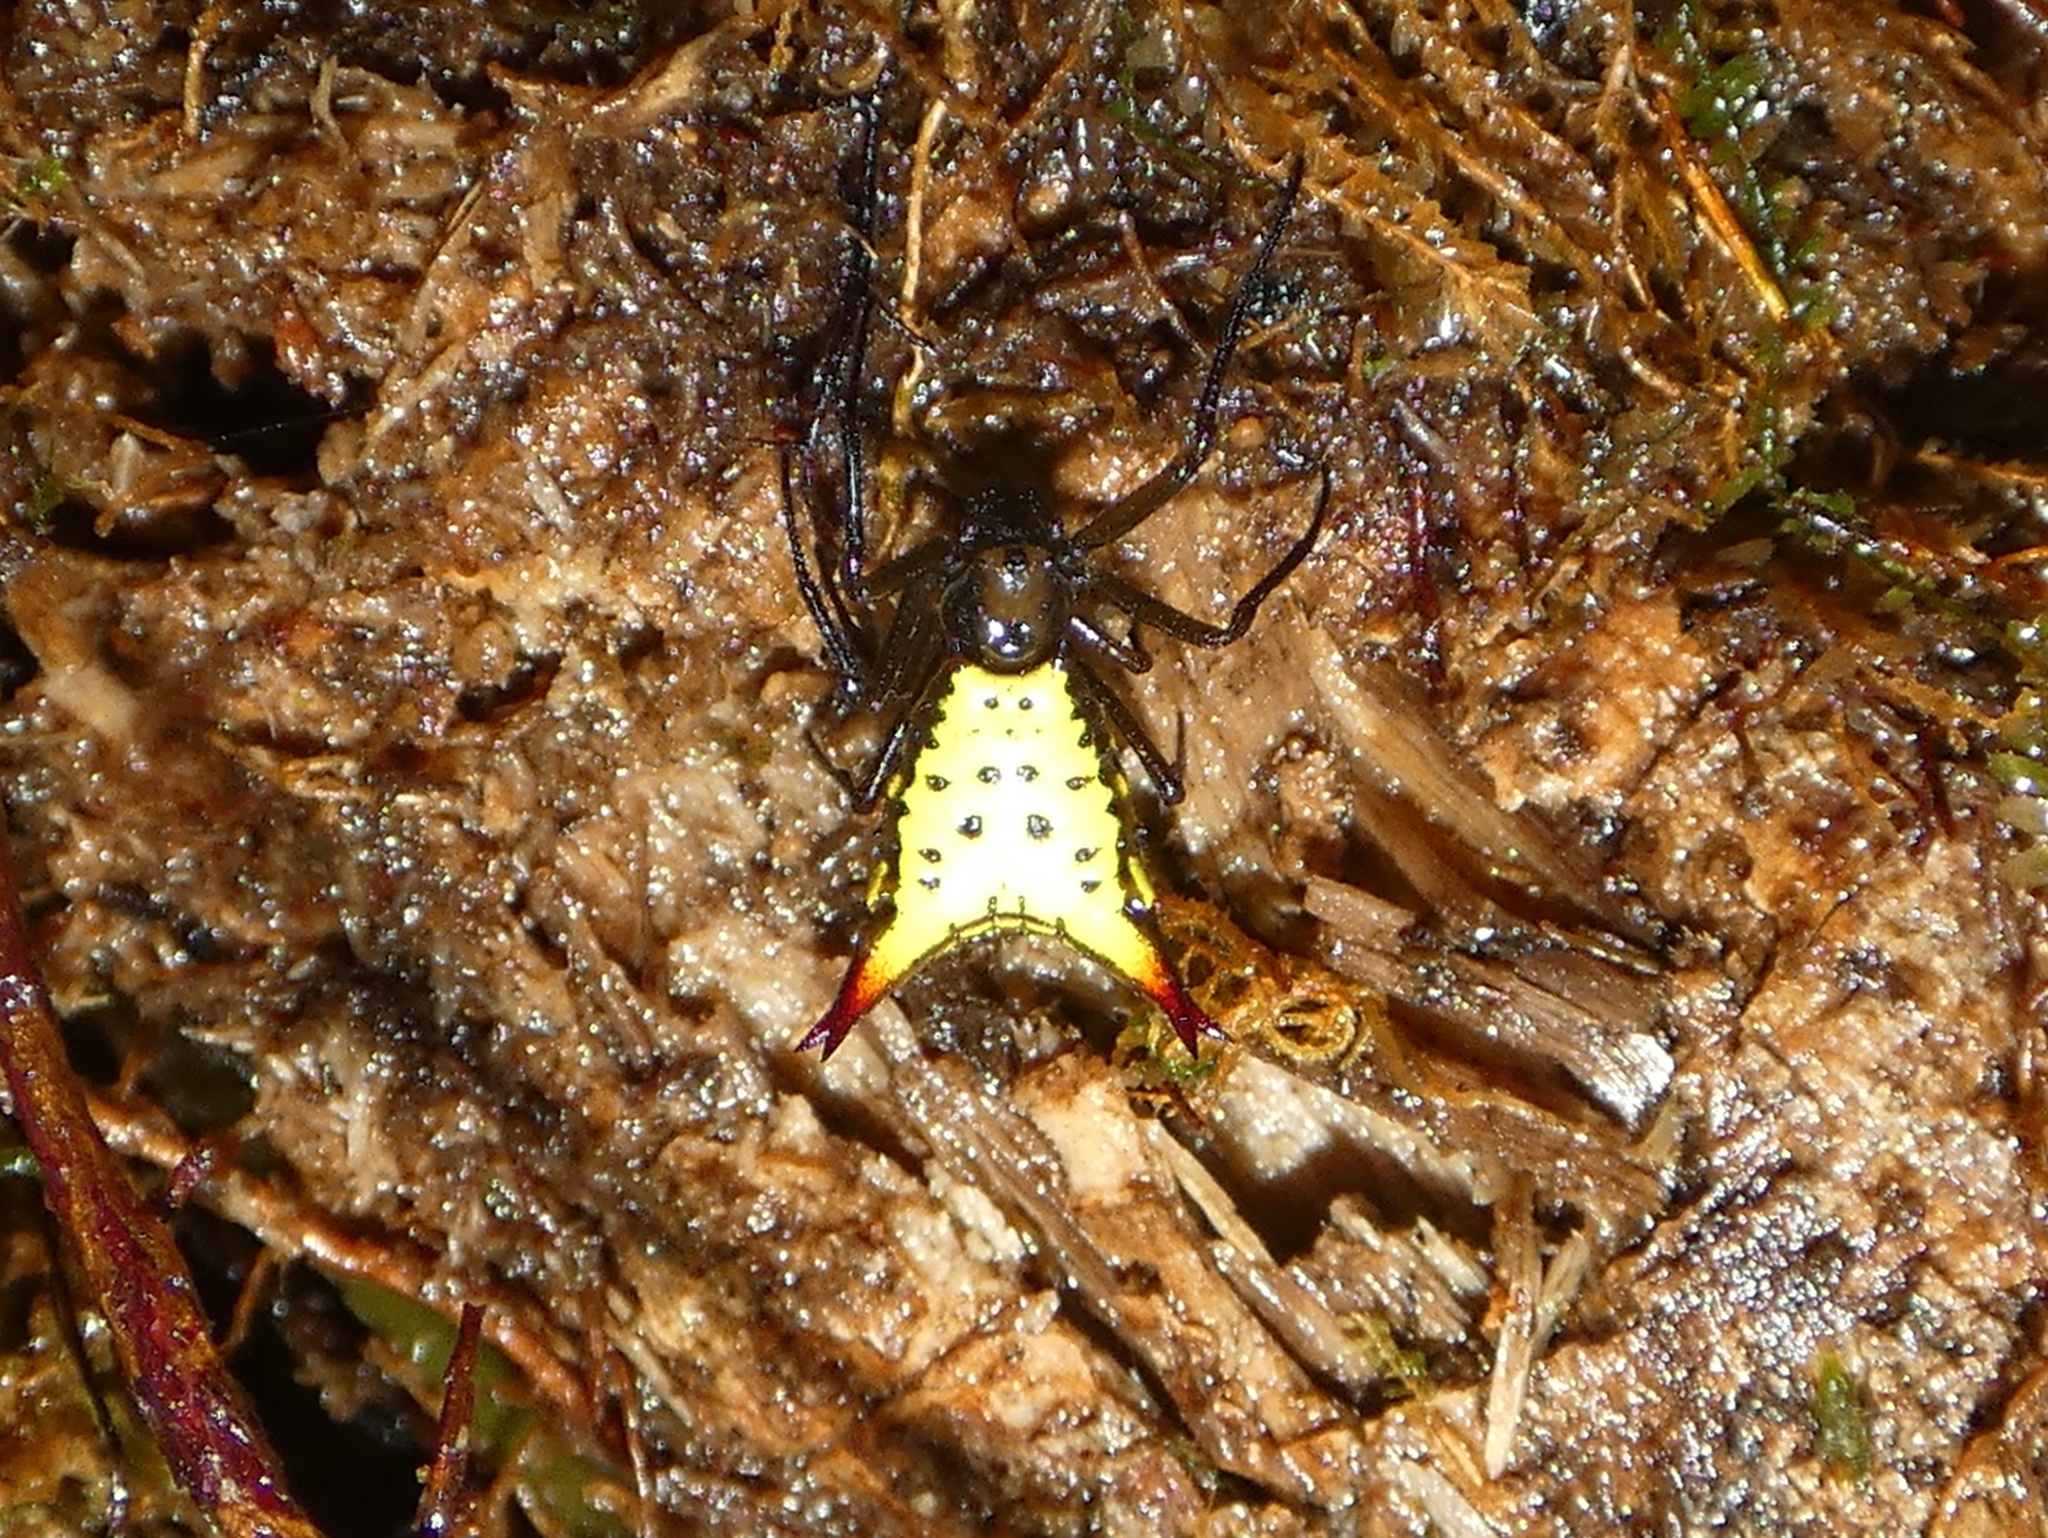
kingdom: Animalia
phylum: Arthropoda
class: Arachnida
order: Araneae
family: Araneidae
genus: Micrathena
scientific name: Micrathena parallela
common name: Orb weavers
